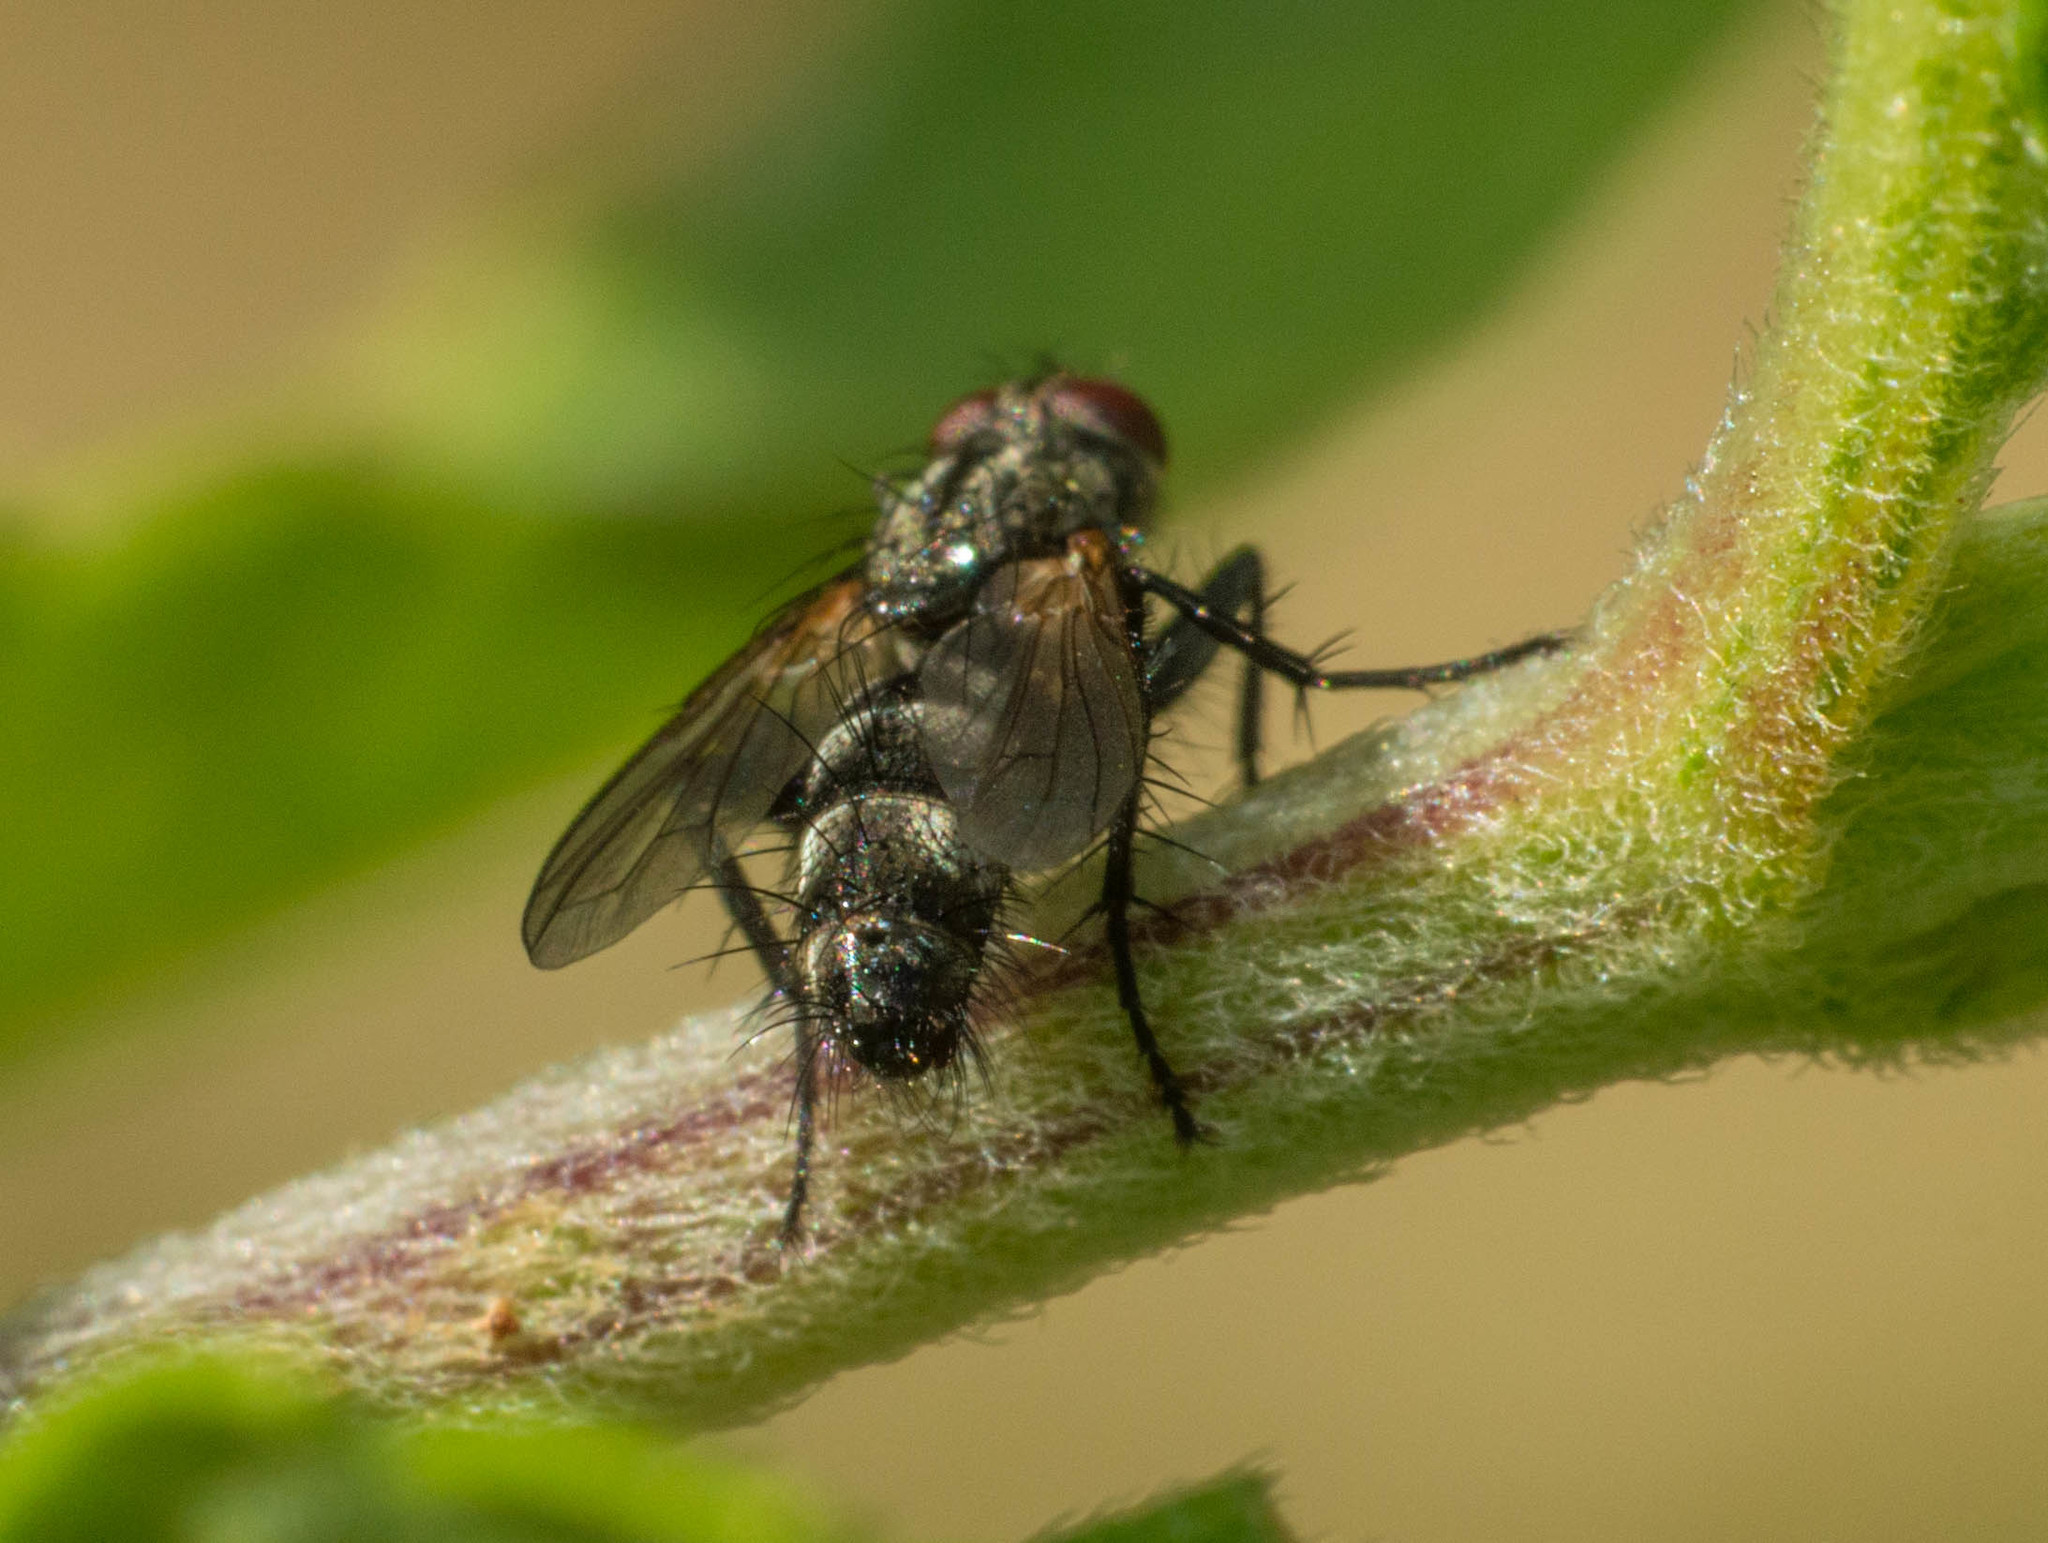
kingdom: Animalia
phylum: Arthropoda
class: Insecta
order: Diptera
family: Calliphoridae
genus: Stevenia
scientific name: Stevenia deceptoria
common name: Grizzled woodlouse-fly
